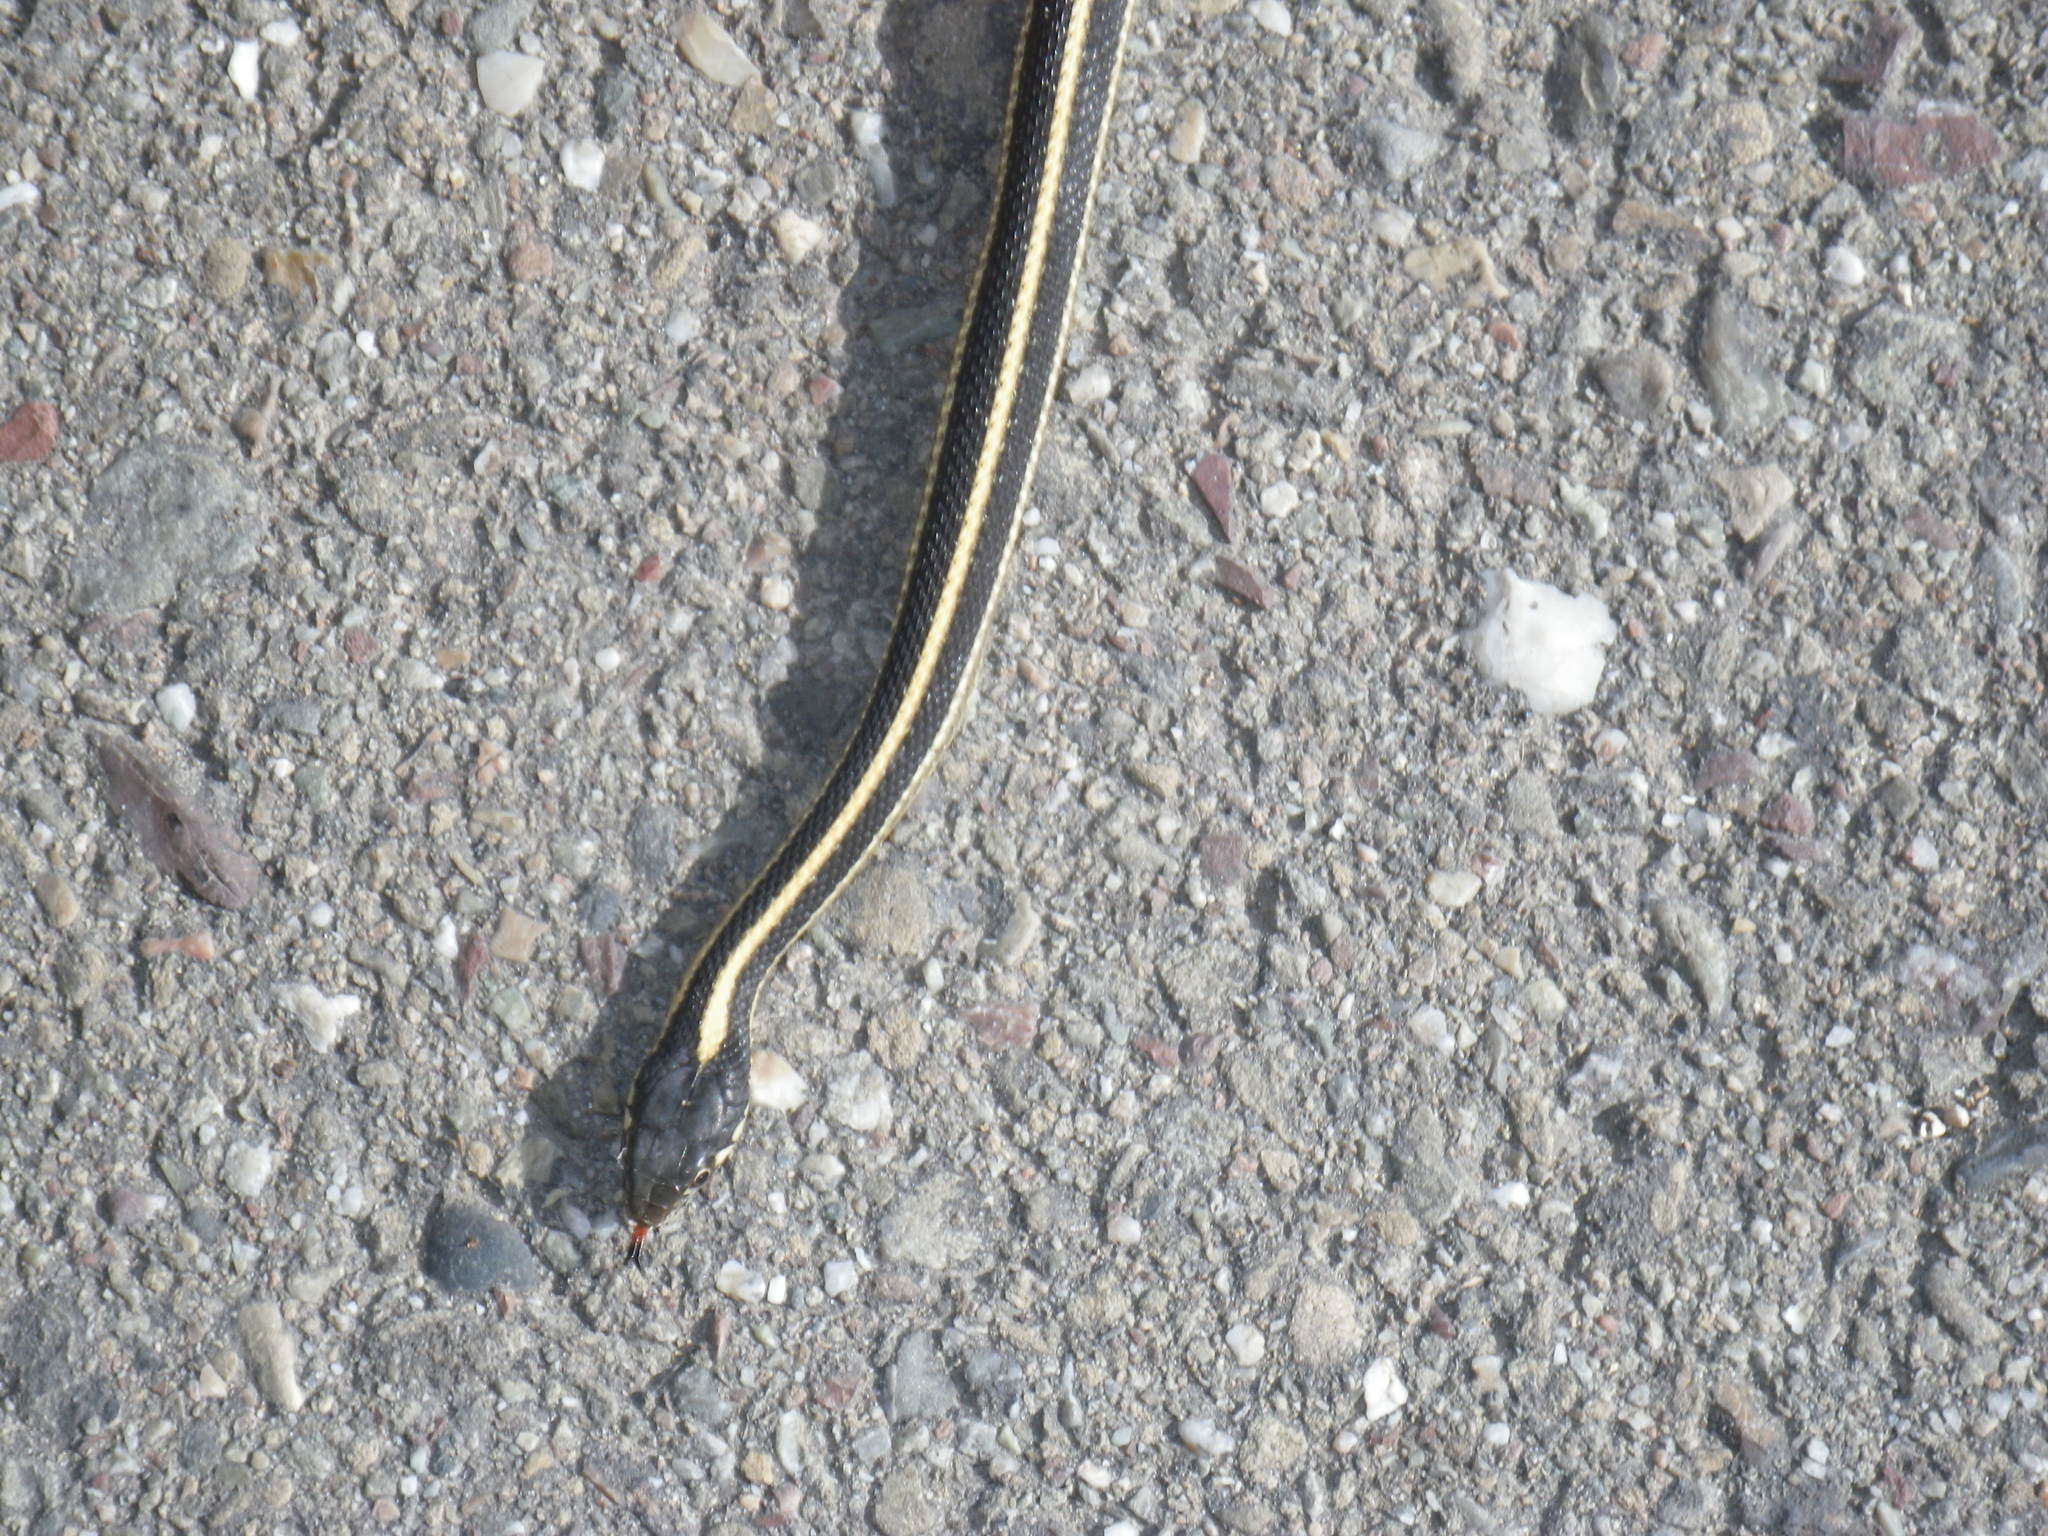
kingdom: Animalia
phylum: Chordata
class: Squamata
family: Colubridae
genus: Thamnophis
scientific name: Thamnophis elegans
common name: Western terrestrial garter snake
